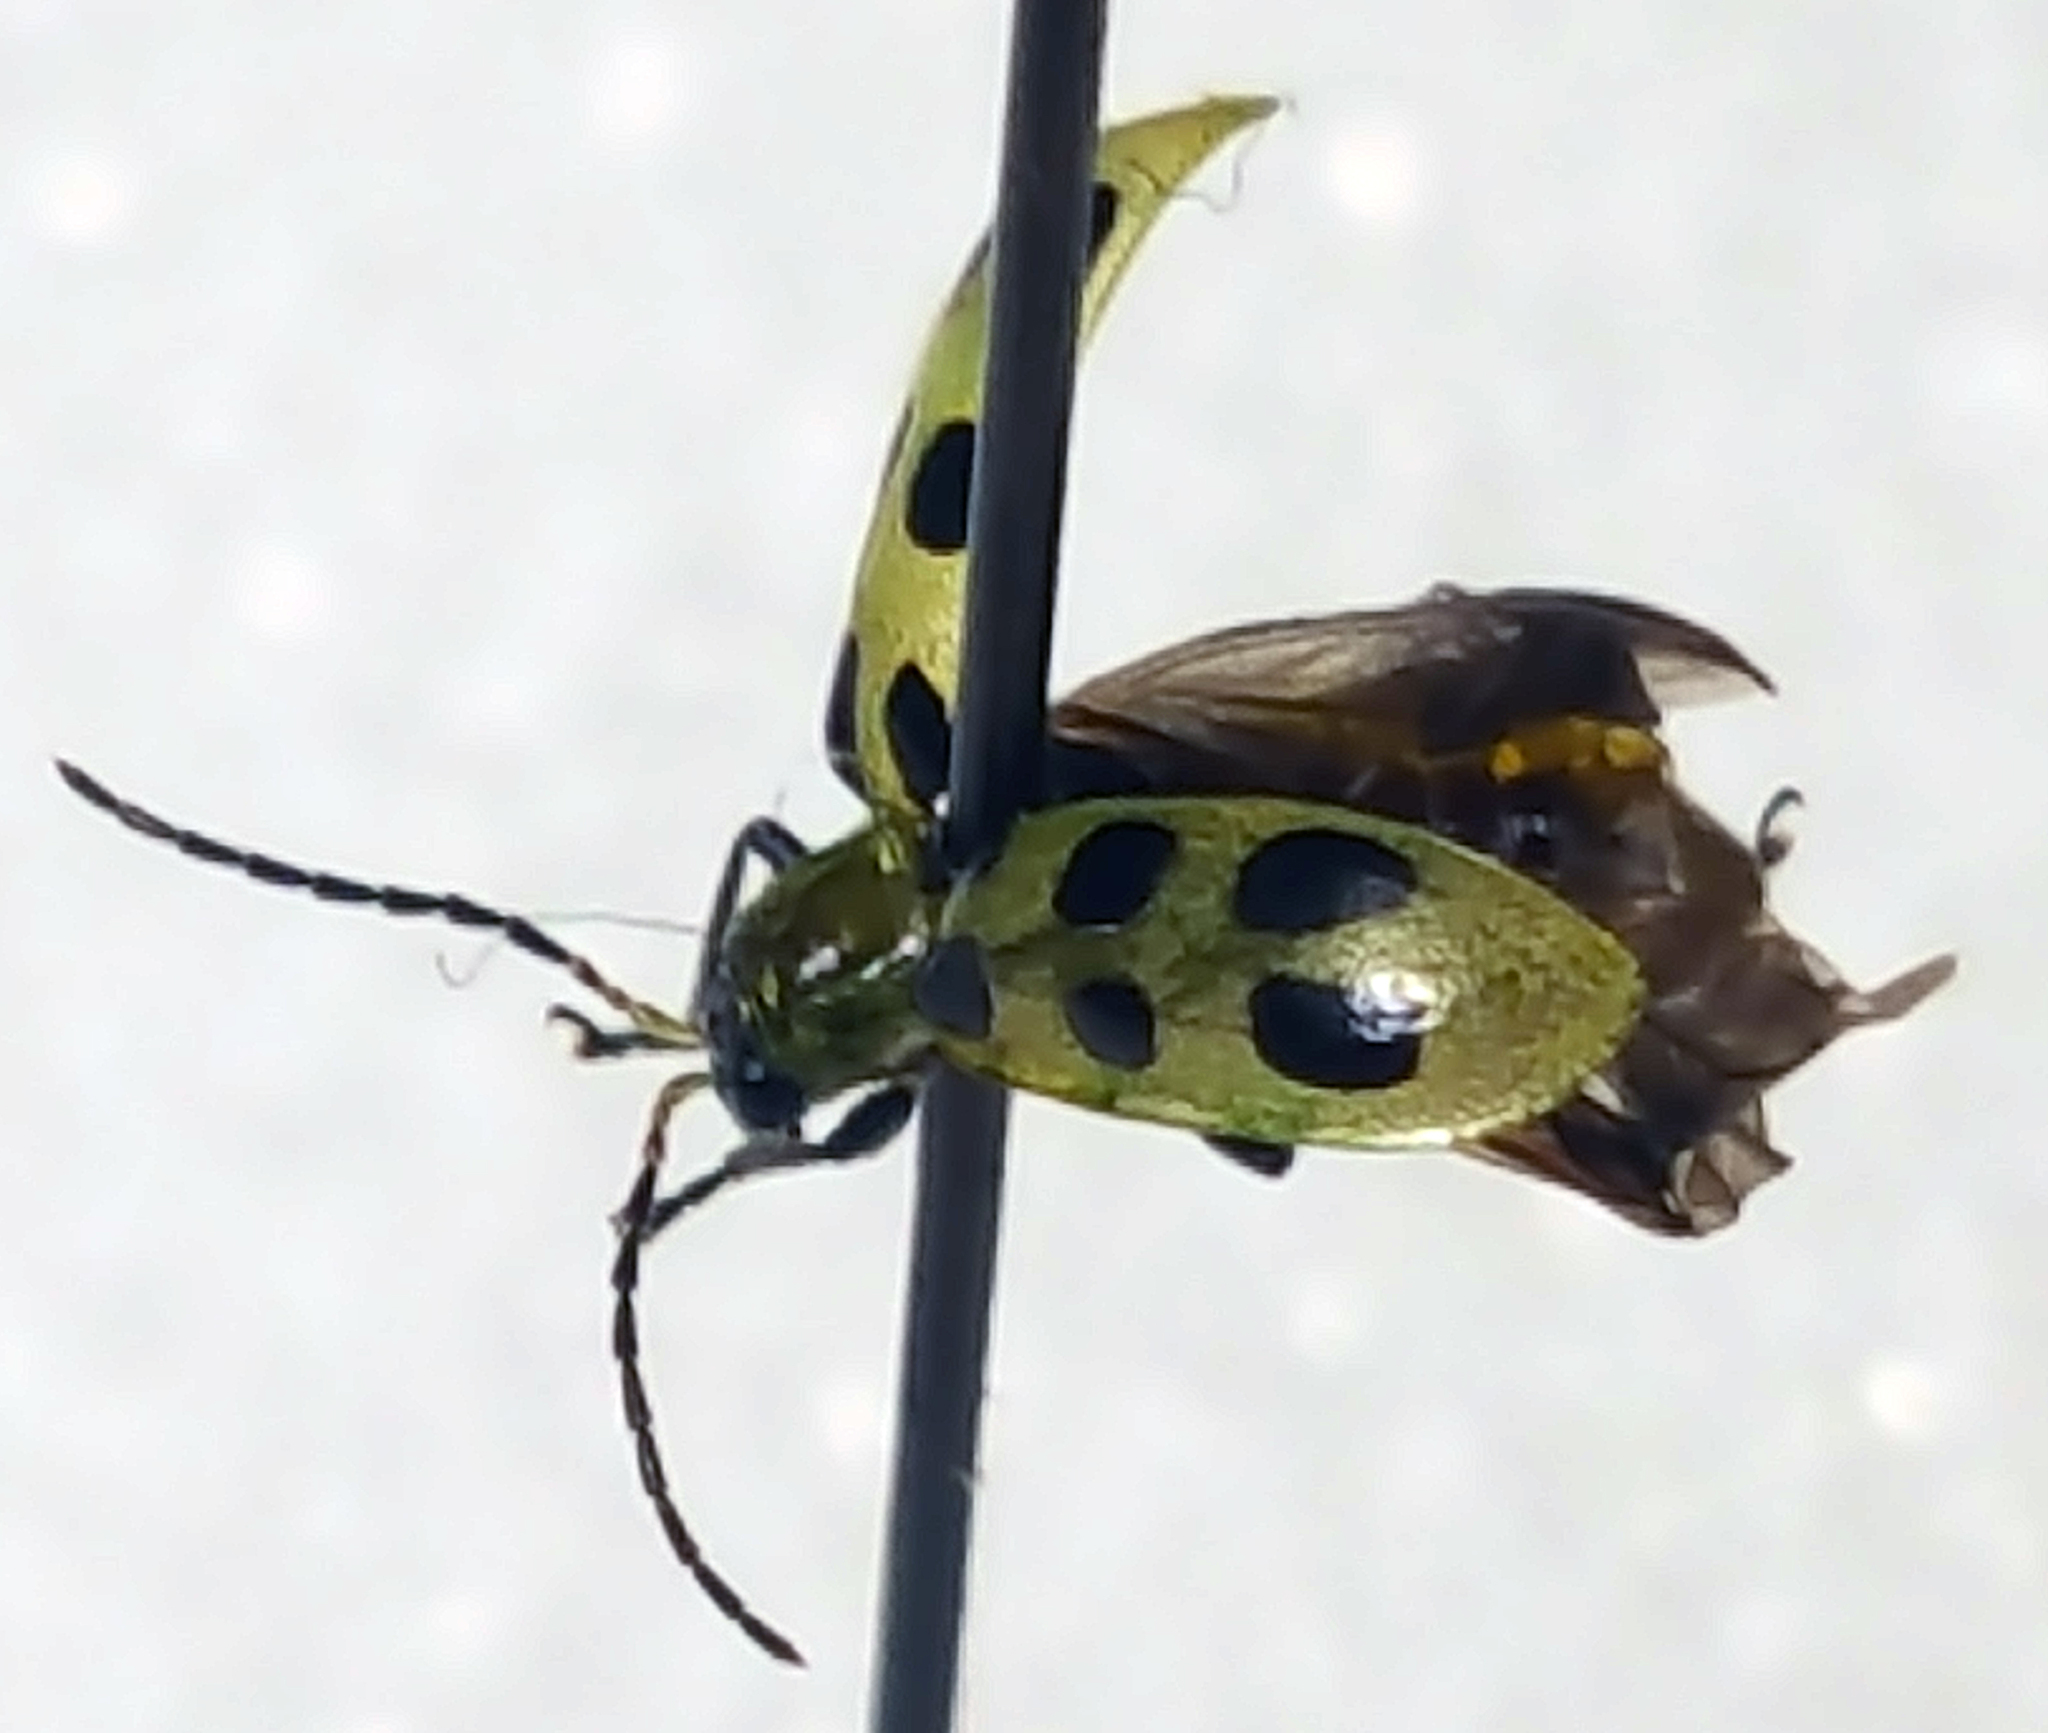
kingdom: Animalia
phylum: Arthropoda
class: Insecta
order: Coleoptera
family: Chrysomelidae
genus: Diabrotica
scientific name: Diabrotica undecimpunctata
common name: Spotted cucumber beetle
